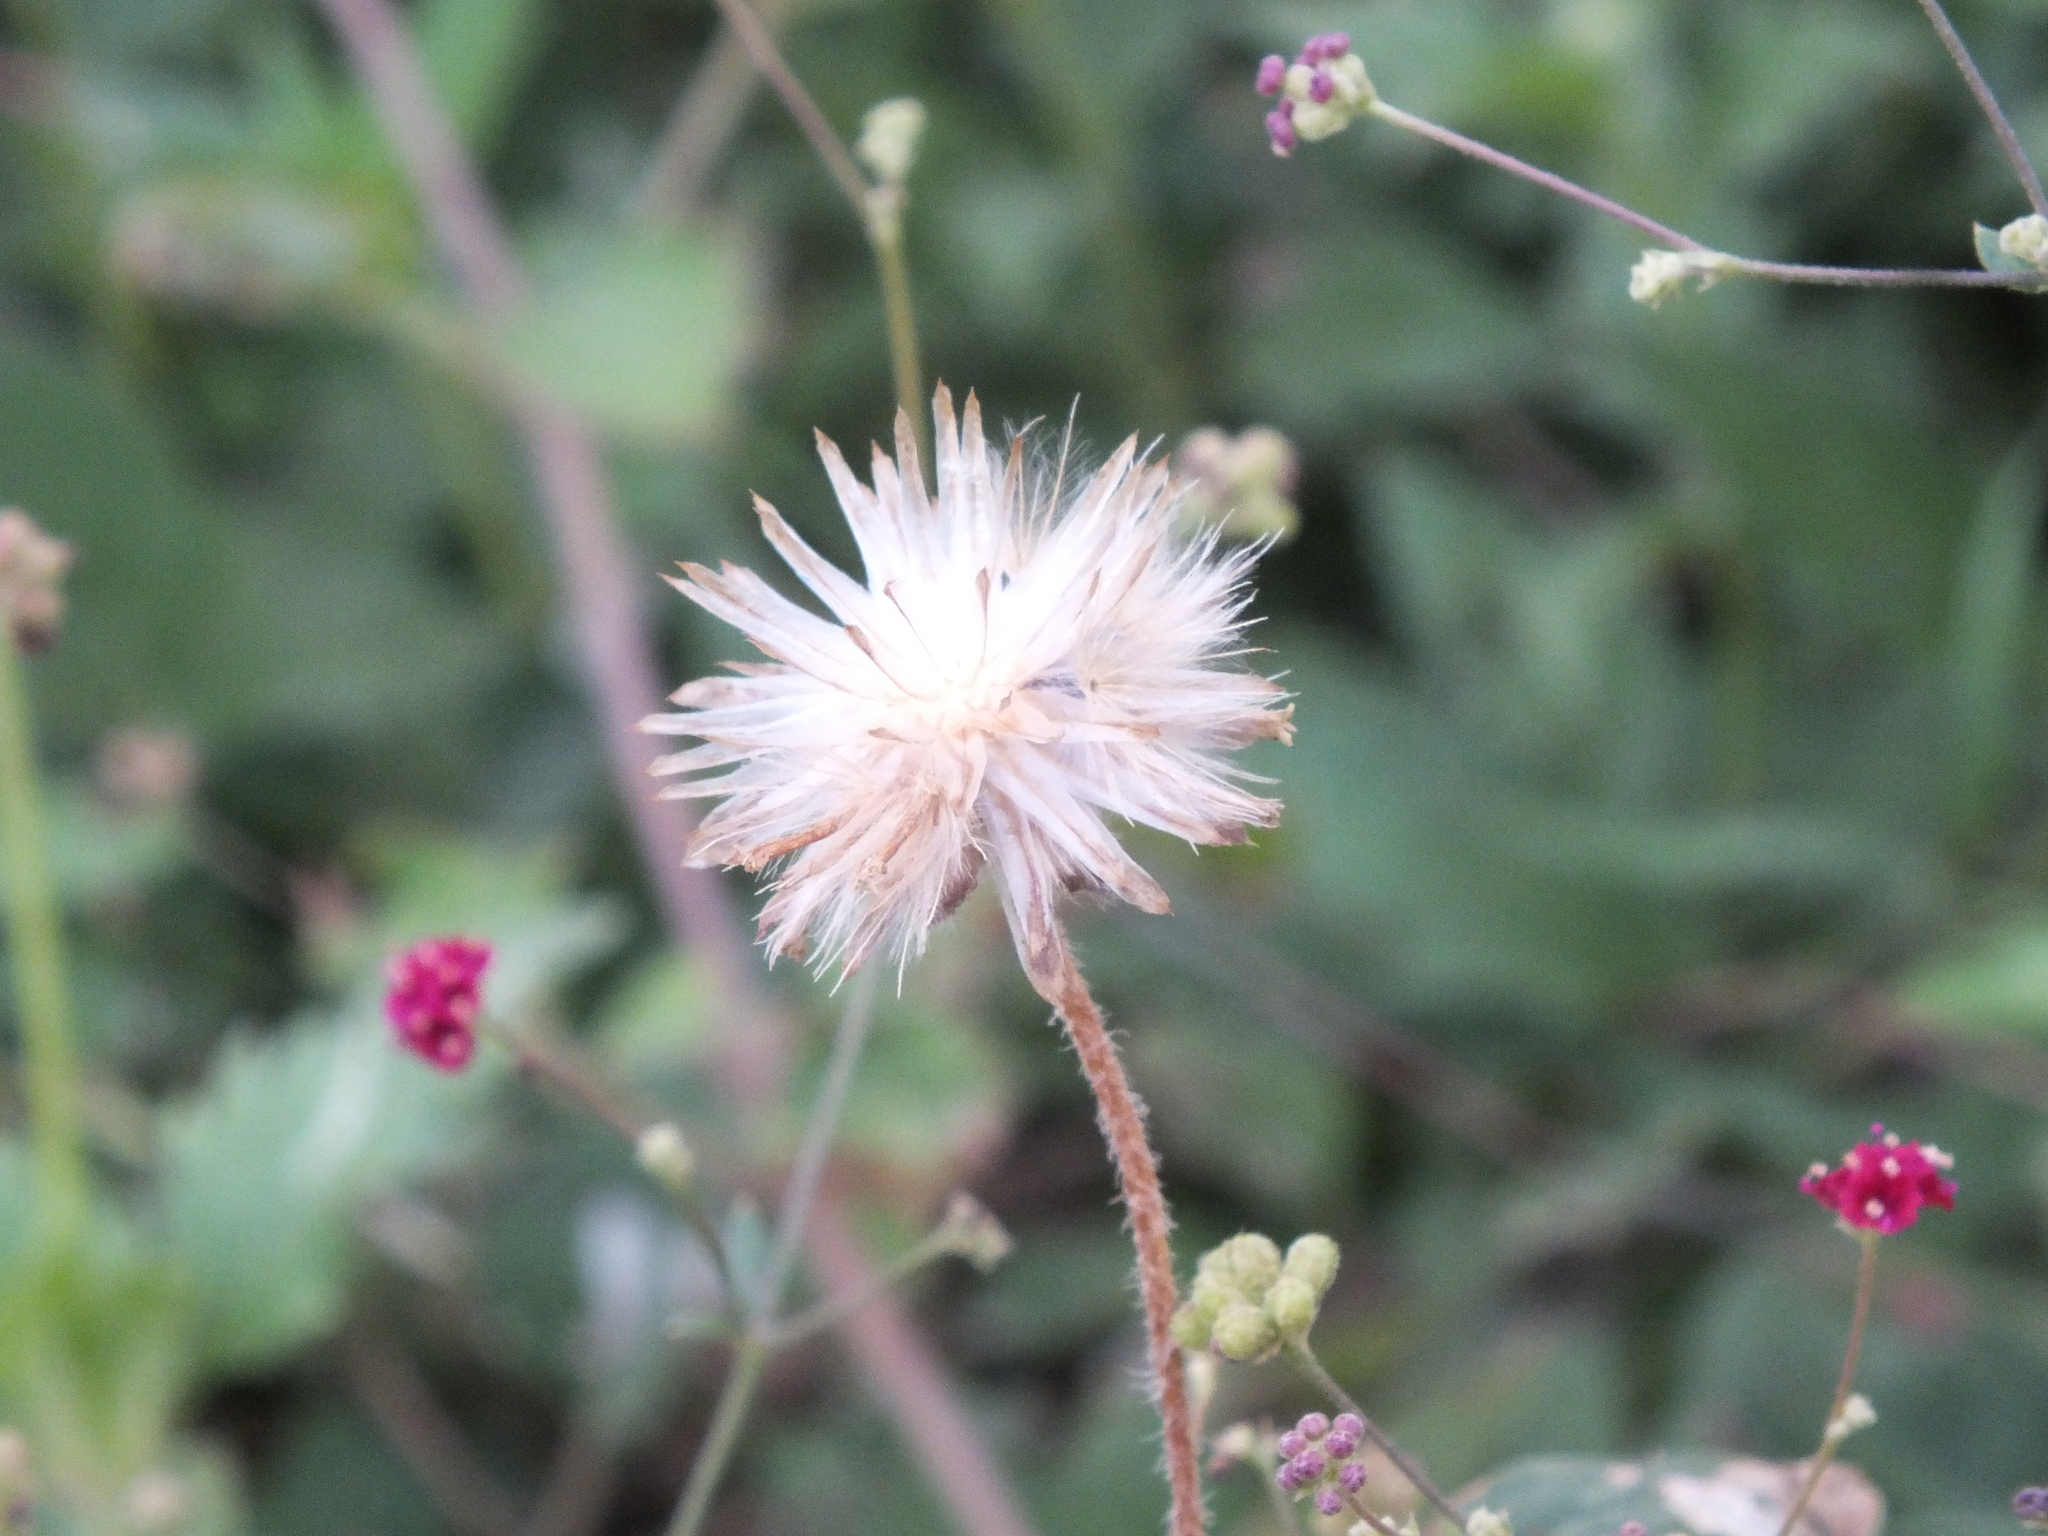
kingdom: Plantae
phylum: Tracheophyta
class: Magnoliopsida
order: Asterales
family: Asteraceae
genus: Tridax
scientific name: Tridax procumbens
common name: Coatbuttons
